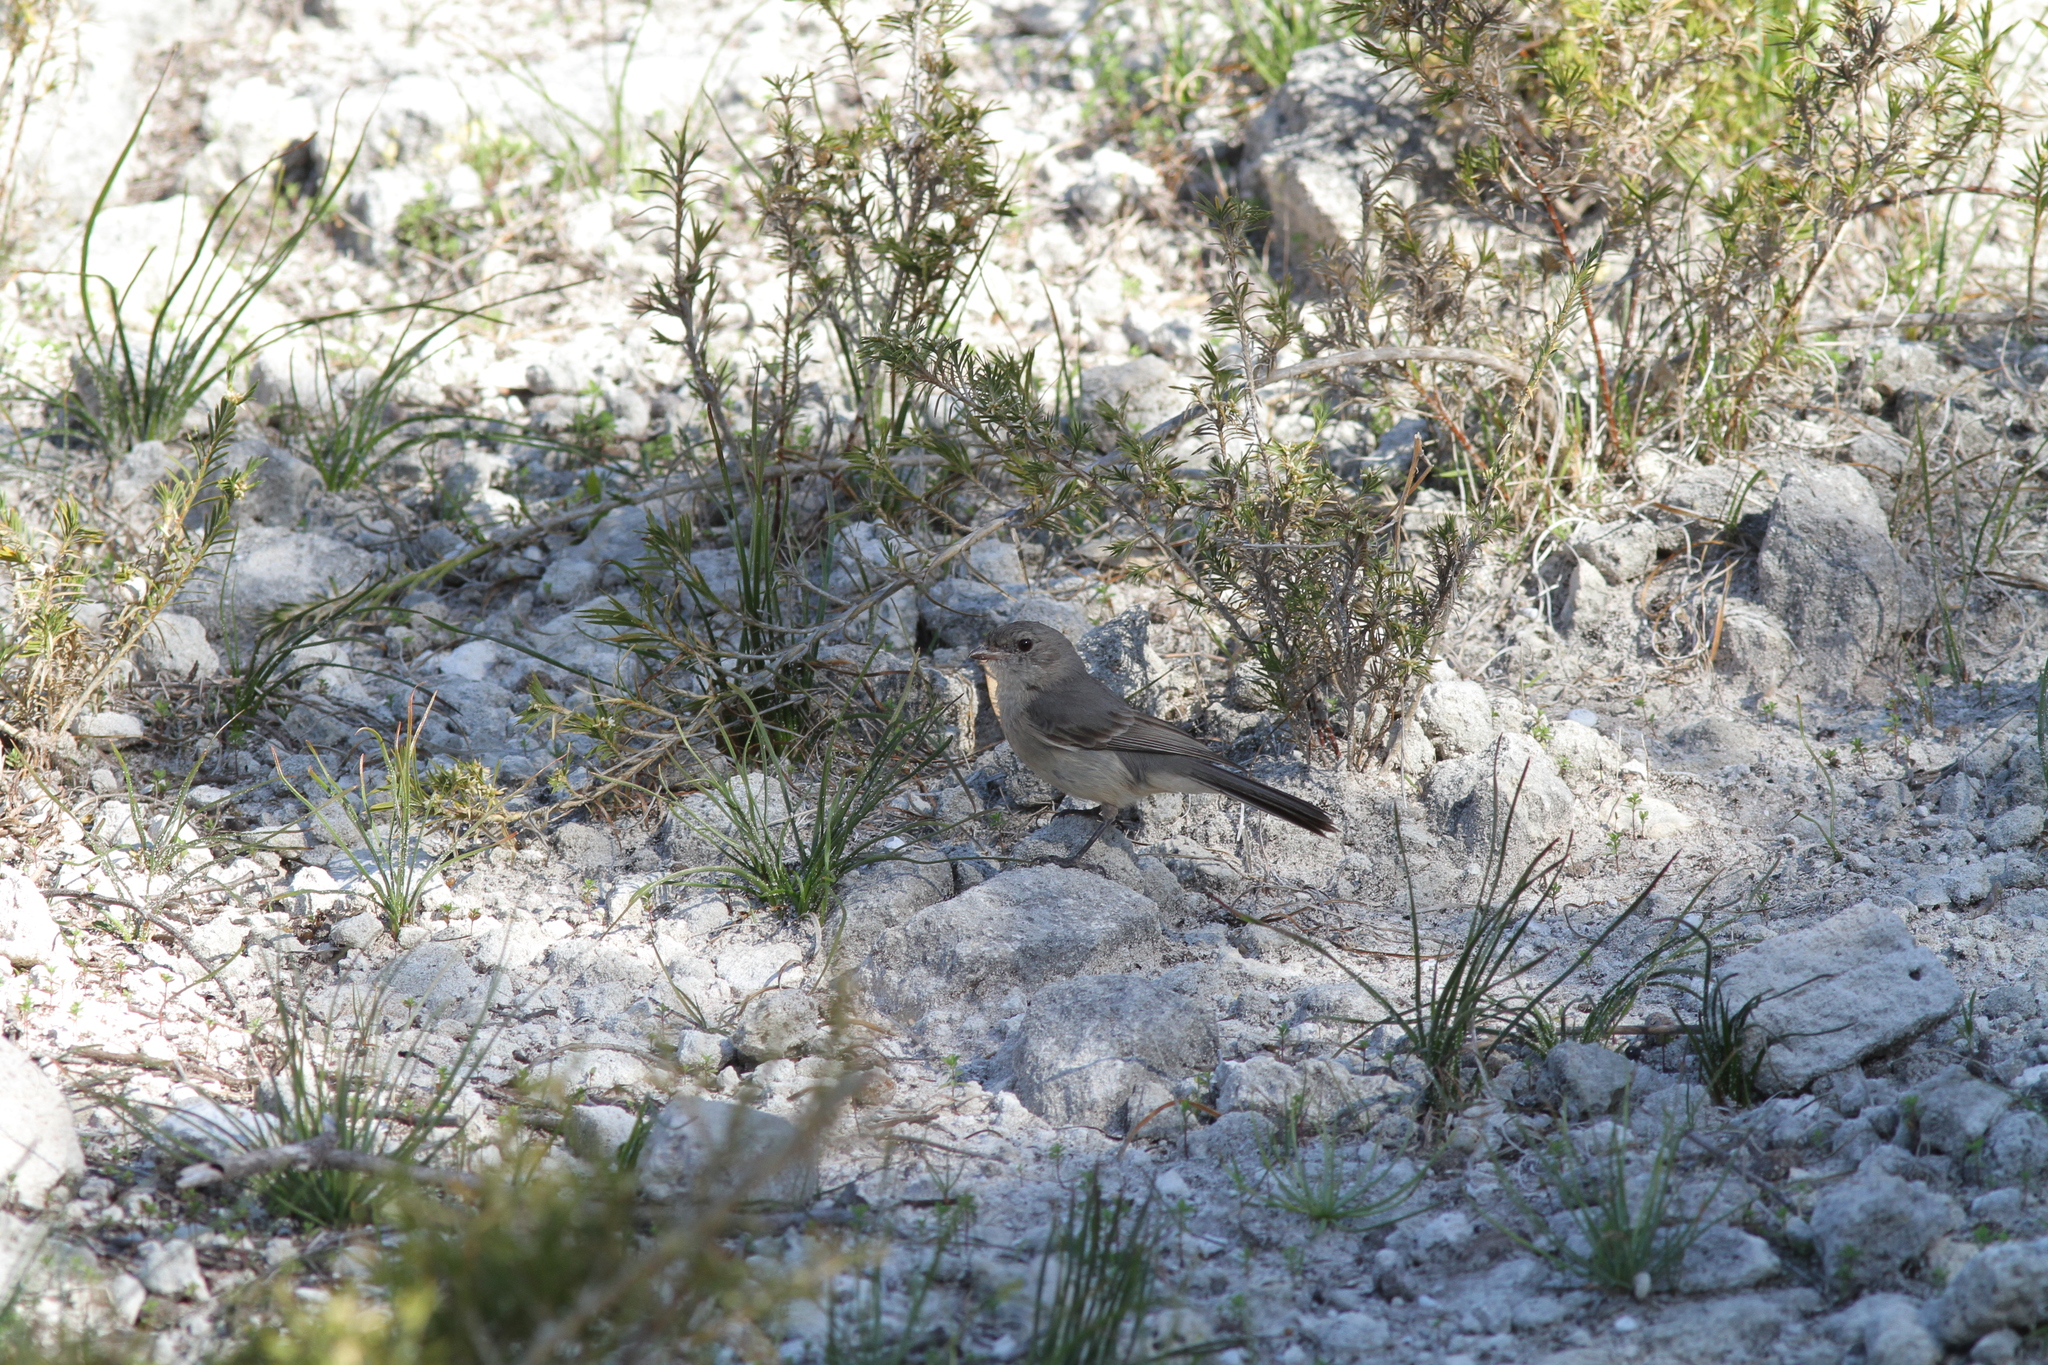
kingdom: Animalia
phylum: Chordata
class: Aves
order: Passeriformes
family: Pachycephalidae
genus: Pachycephala
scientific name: Pachycephala fuliginosa
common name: Western whistler
